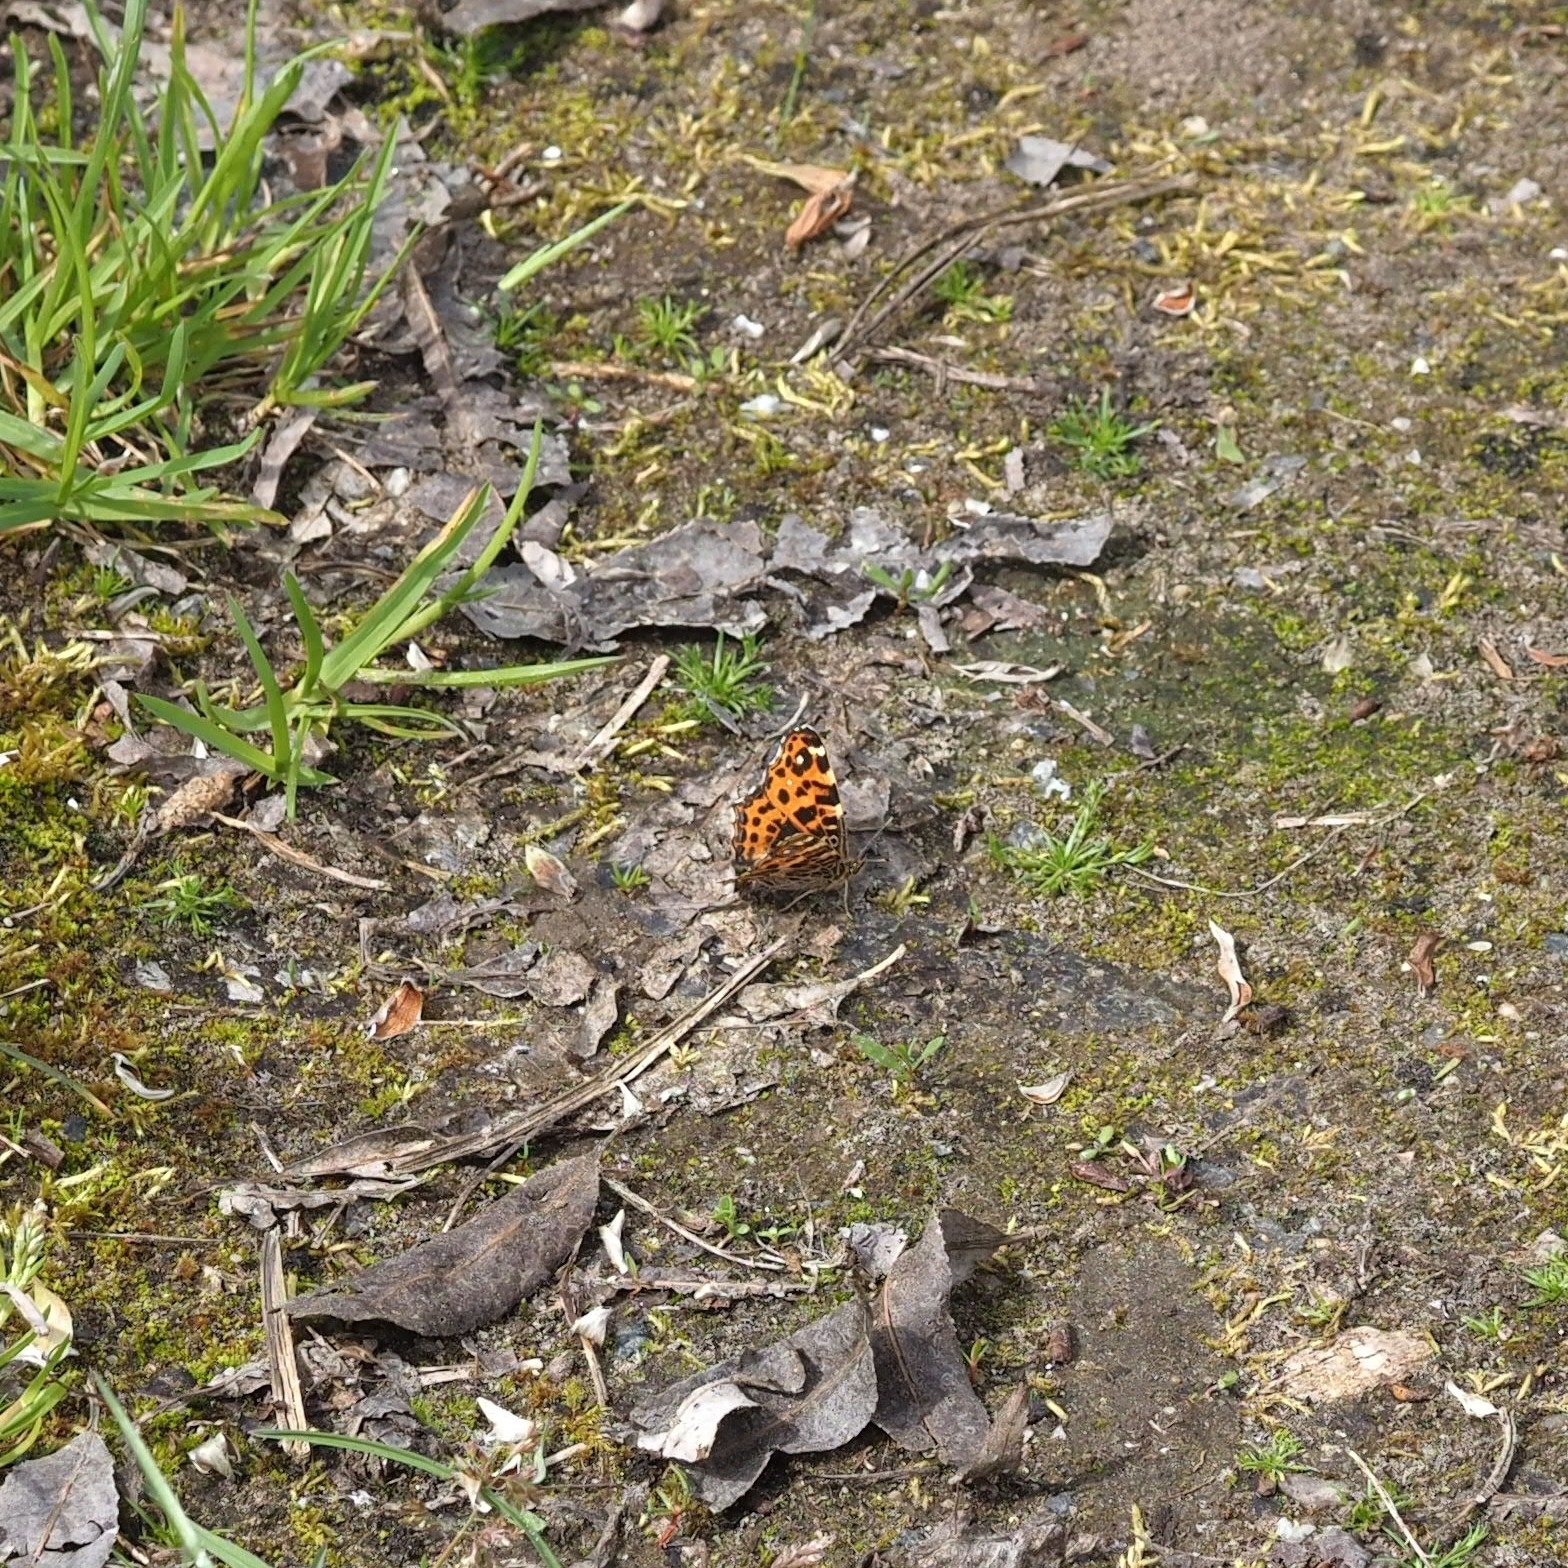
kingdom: Animalia
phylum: Arthropoda
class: Insecta
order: Lepidoptera
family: Nymphalidae
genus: Araschnia
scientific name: Araschnia levana
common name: Map butterfly
